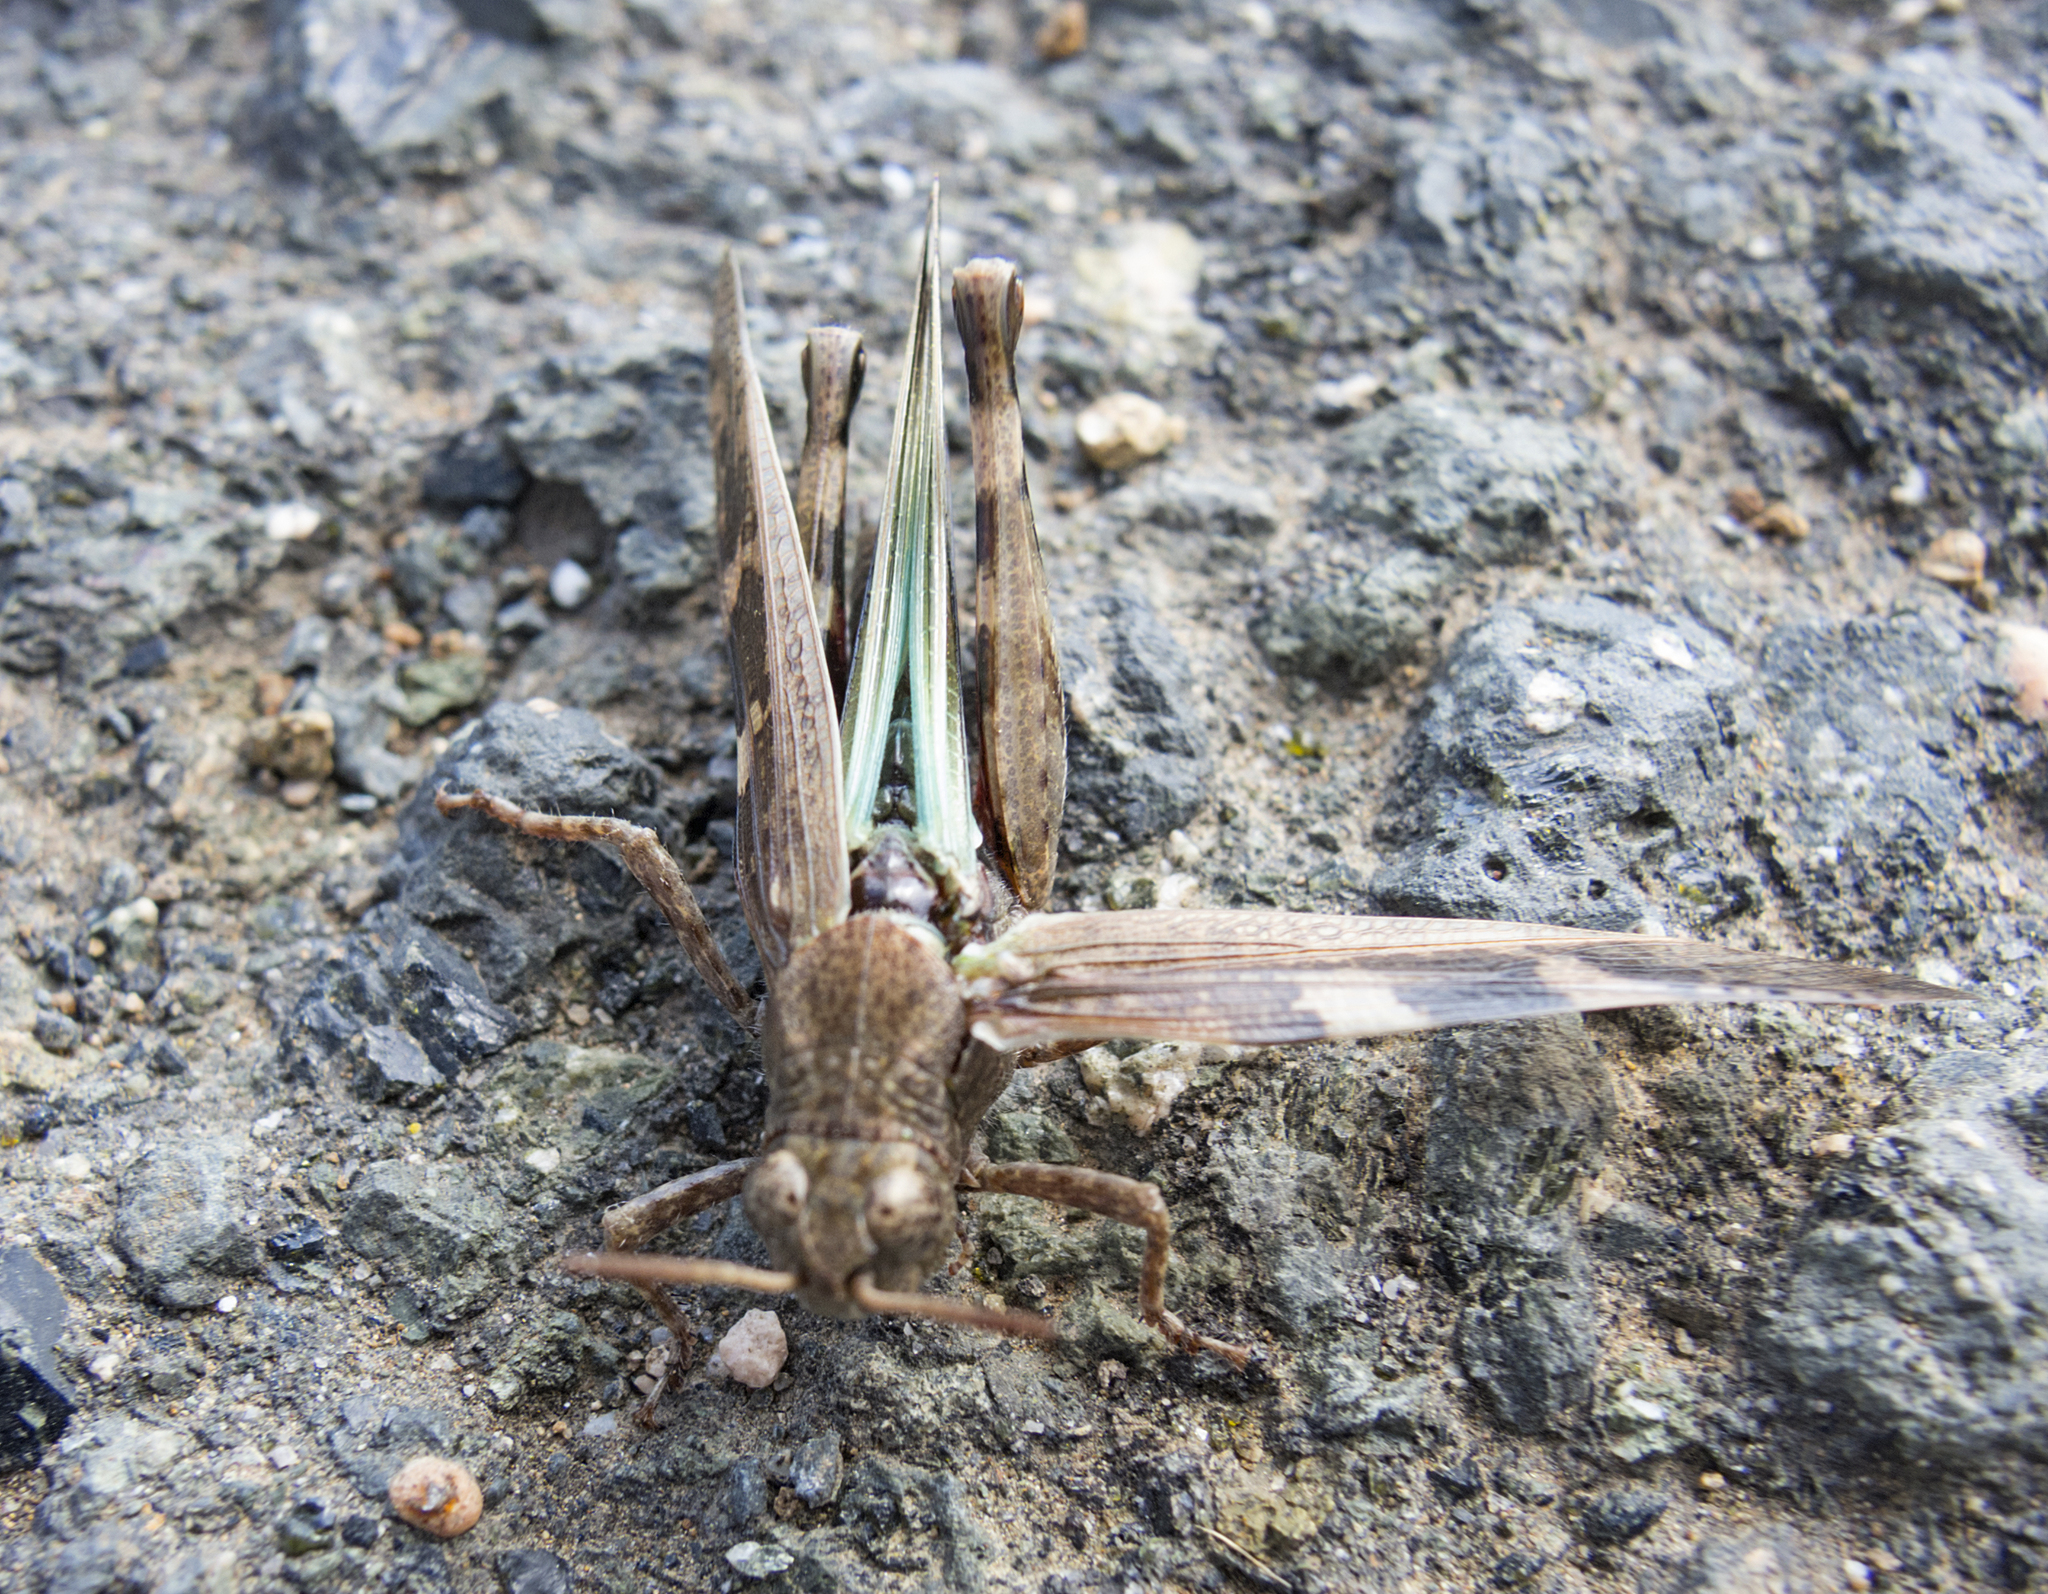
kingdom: Animalia
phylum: Arthropoda
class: Insecta
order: Orthoptera
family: Acrididae
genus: Aiolopus
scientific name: Aiolopus strepens
